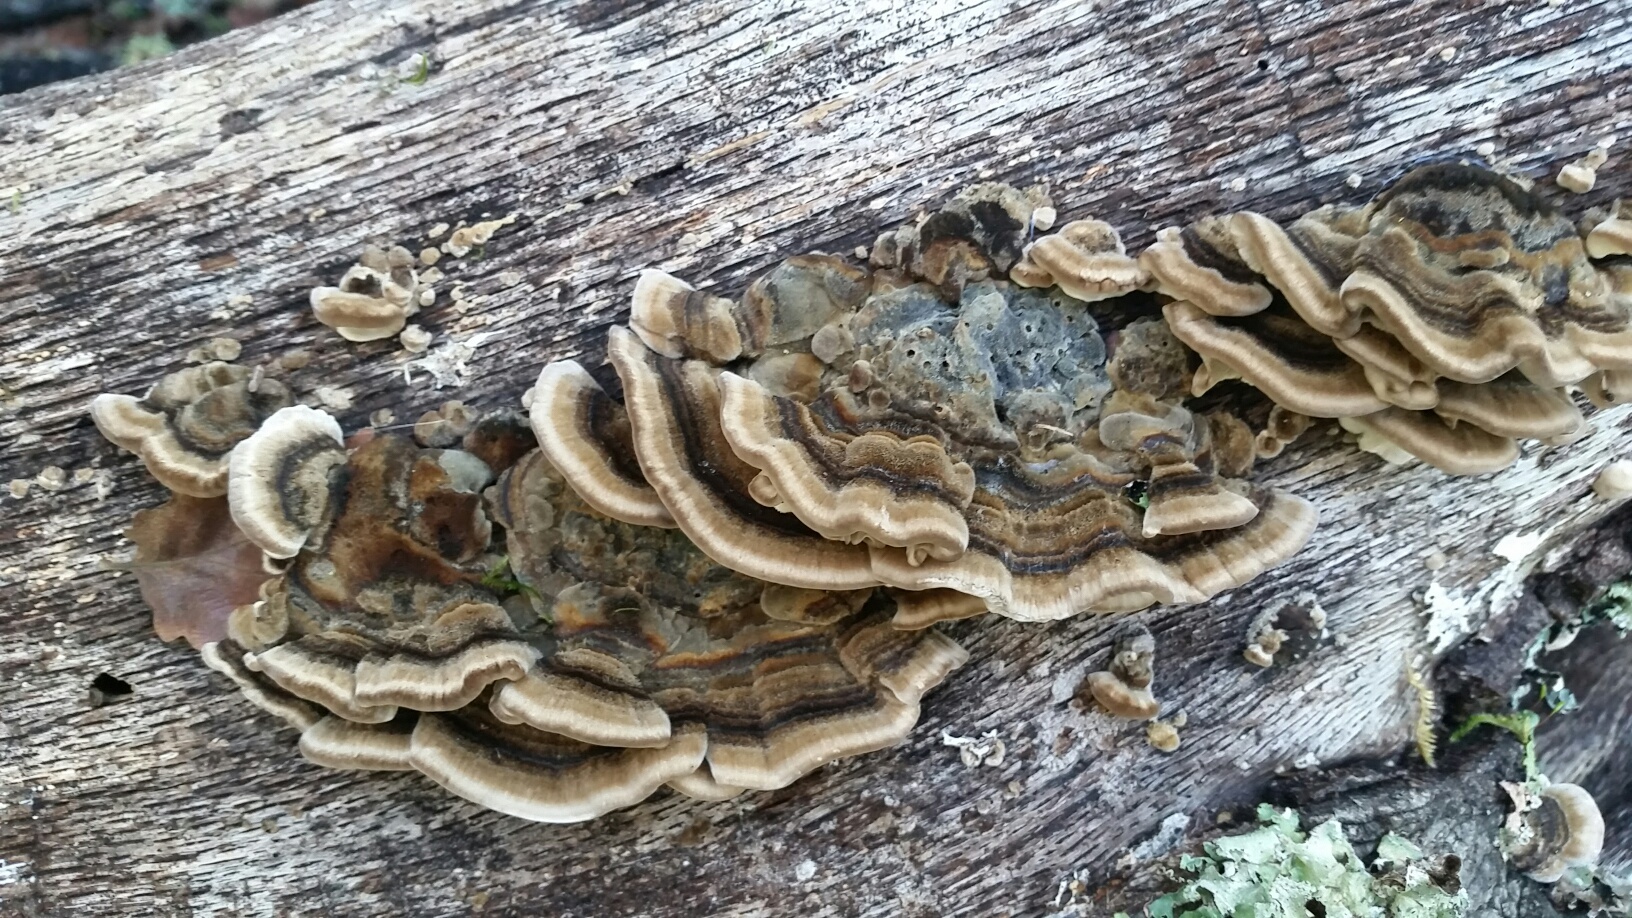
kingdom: Fungi
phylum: Basidiomycota
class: Agaricomycetes
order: Polyporales
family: Polyporaceae
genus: Trametes
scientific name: Trametes versicolor
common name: Turkeytail
